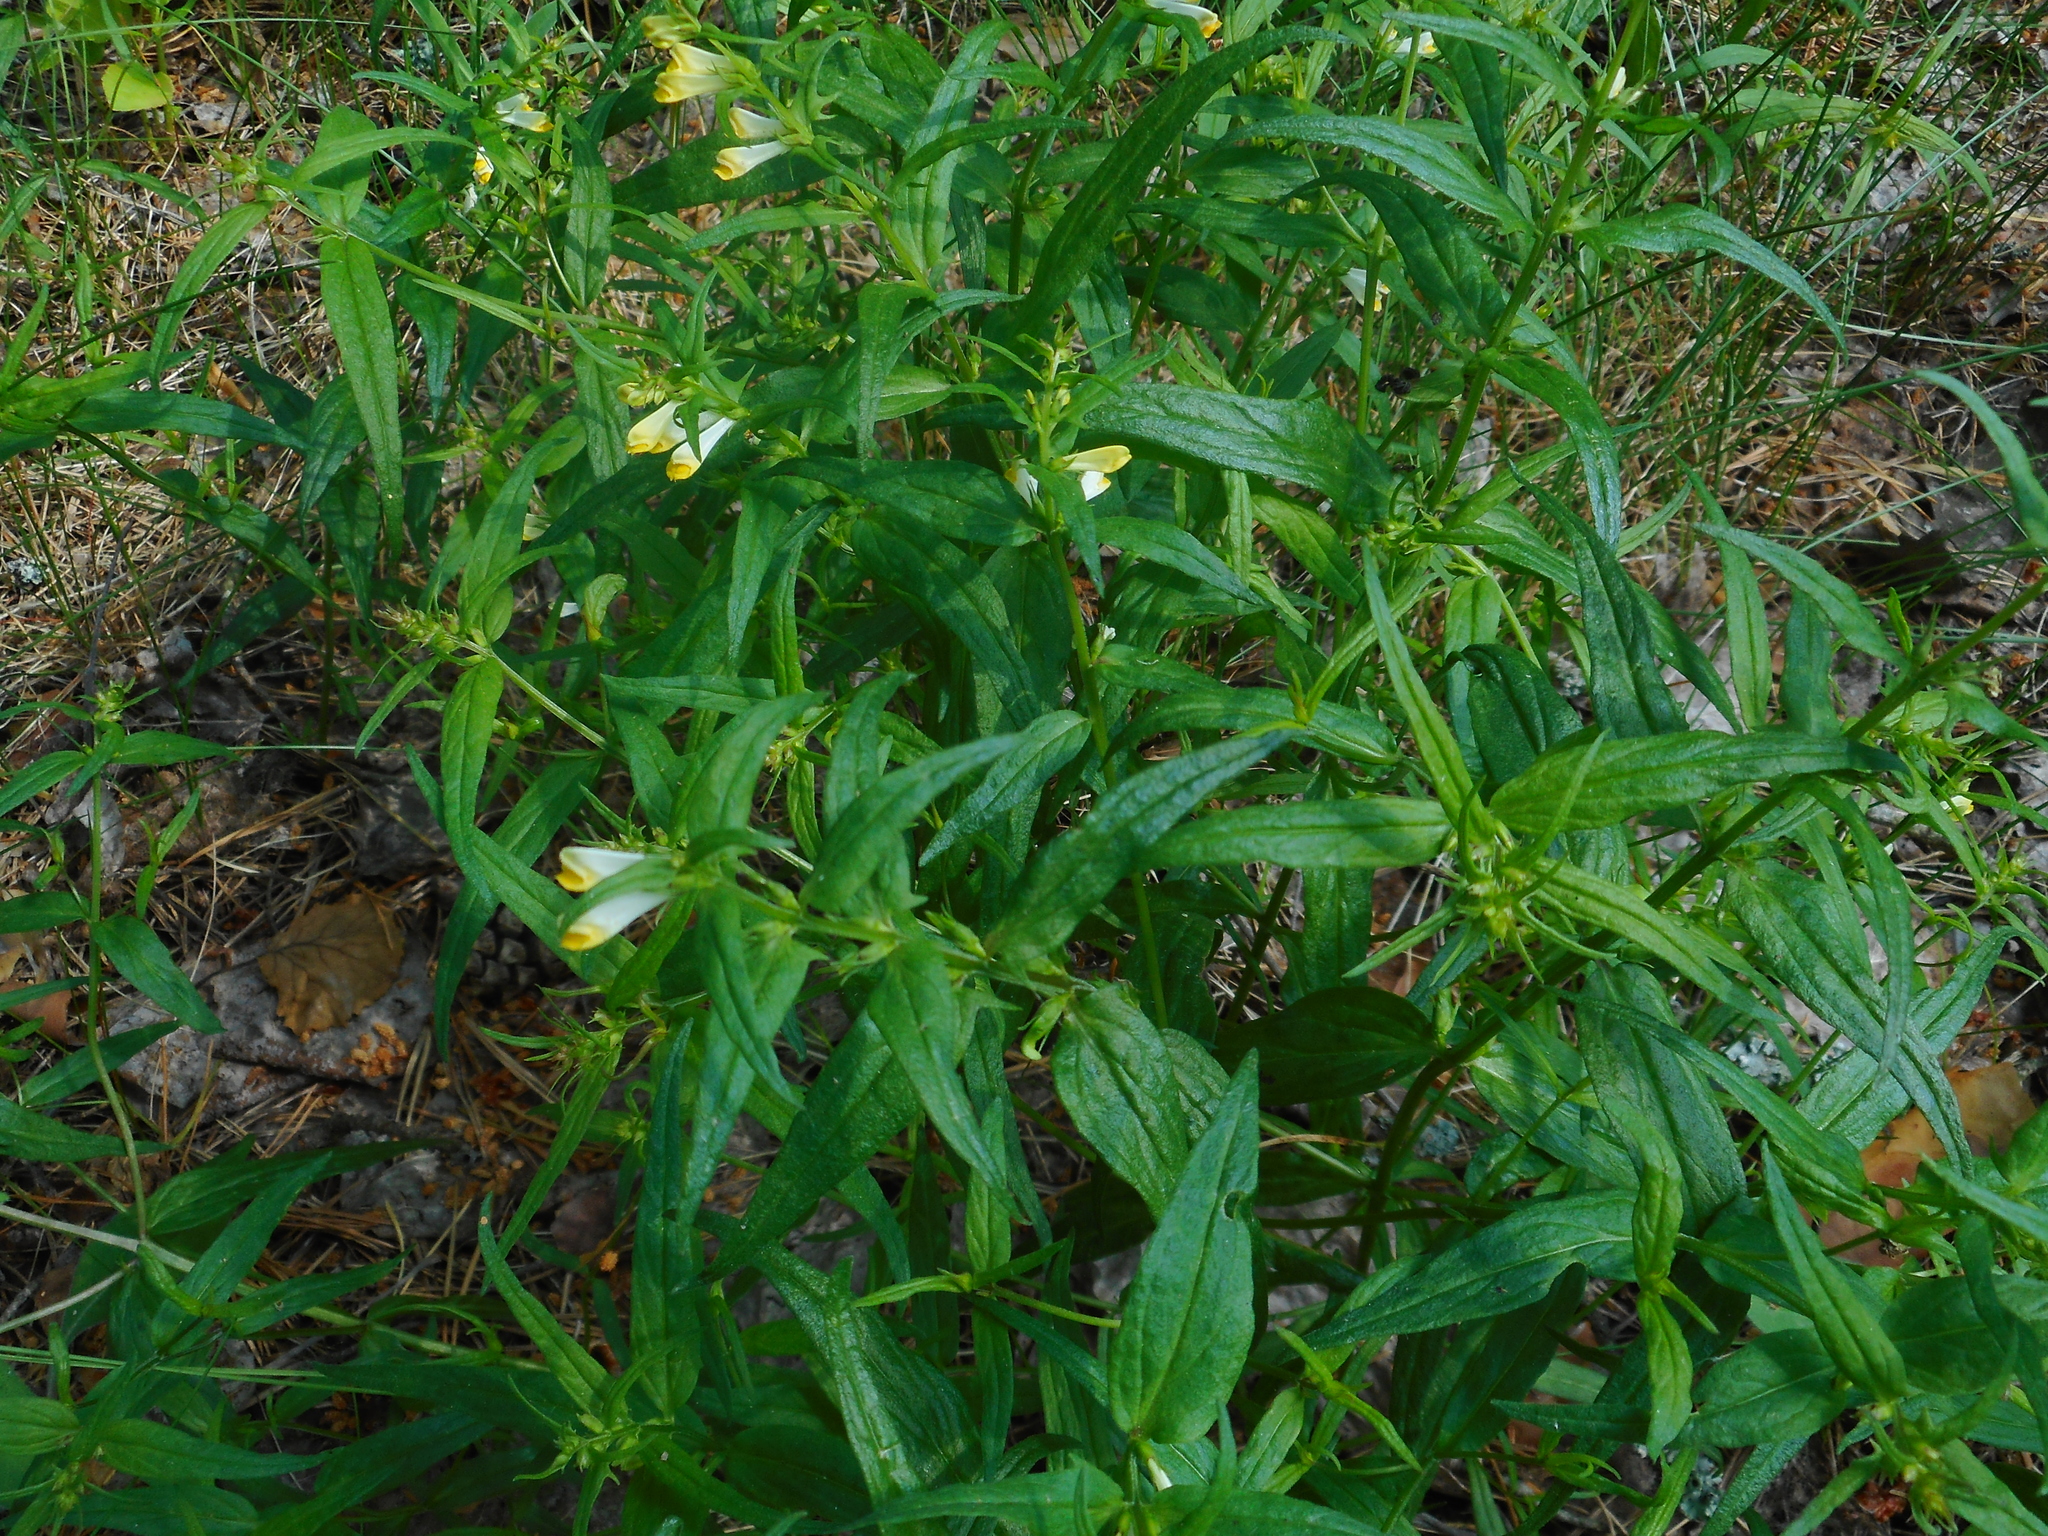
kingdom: Plantae
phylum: Tracheophyta
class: Magnoliopsida
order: Lamiales
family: Orobanchaceae
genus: Melampyrum
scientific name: Melampyrum pratense
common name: Common cow-wheat
